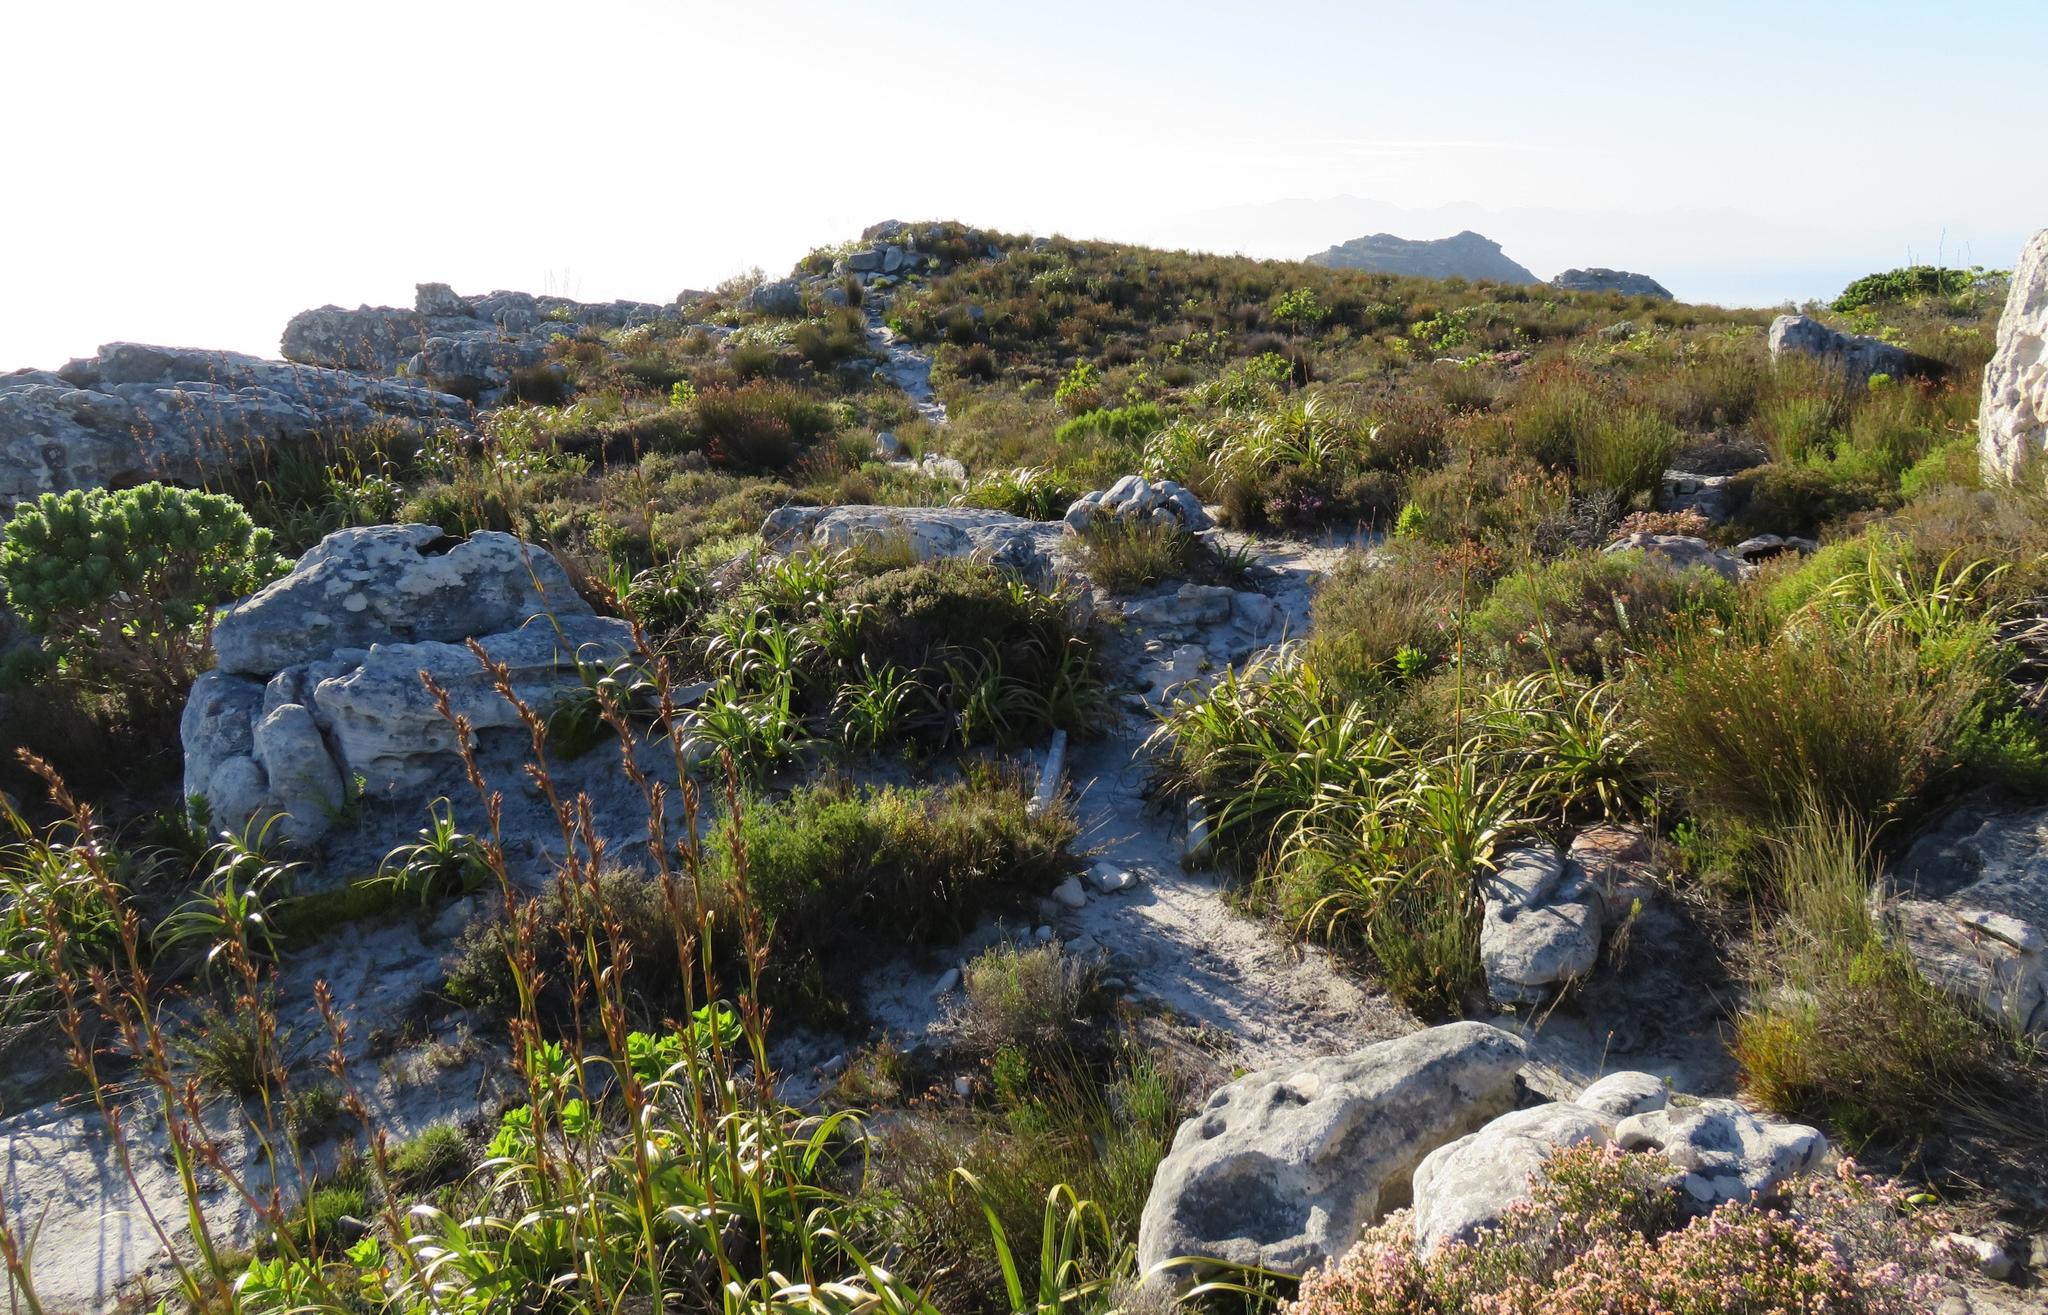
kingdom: Plantae
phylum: Tracheophyta
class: Liliopsida
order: Poales
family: Cyperaceae
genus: Tetraria
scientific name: Tetraria thermalis
